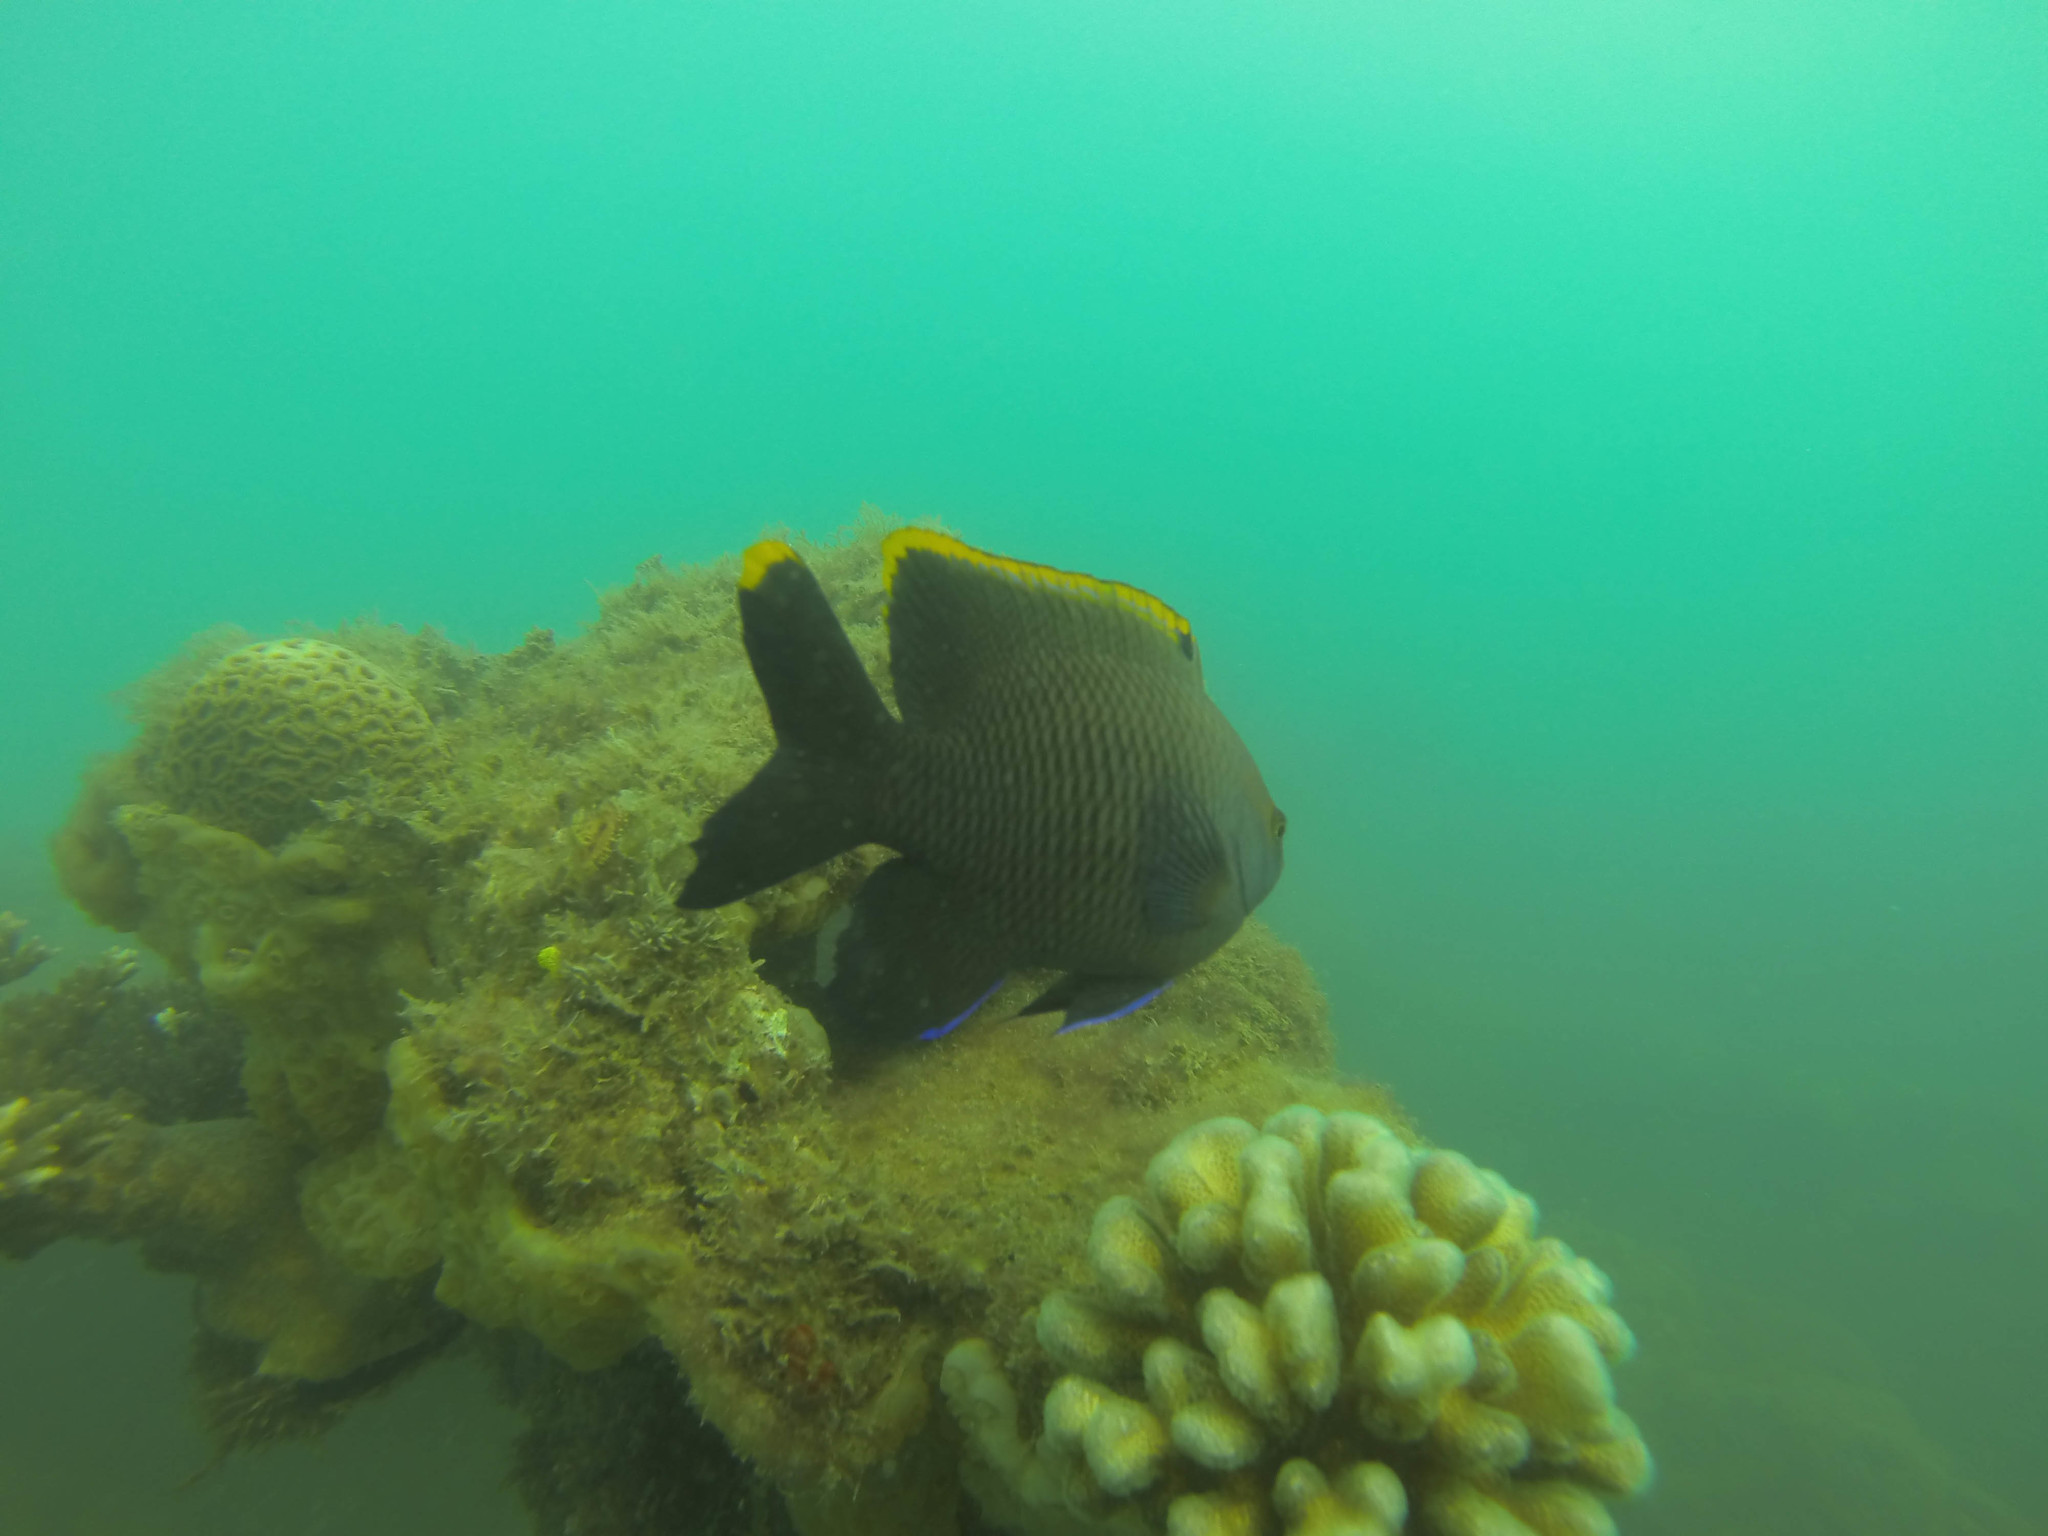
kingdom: Animalia
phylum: Cnidaria
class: Anthozoa
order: Scleractinia
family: Pocilloporidae
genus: Pocillopora
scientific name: Pocillopora damicornis
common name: Cauliflower coral
